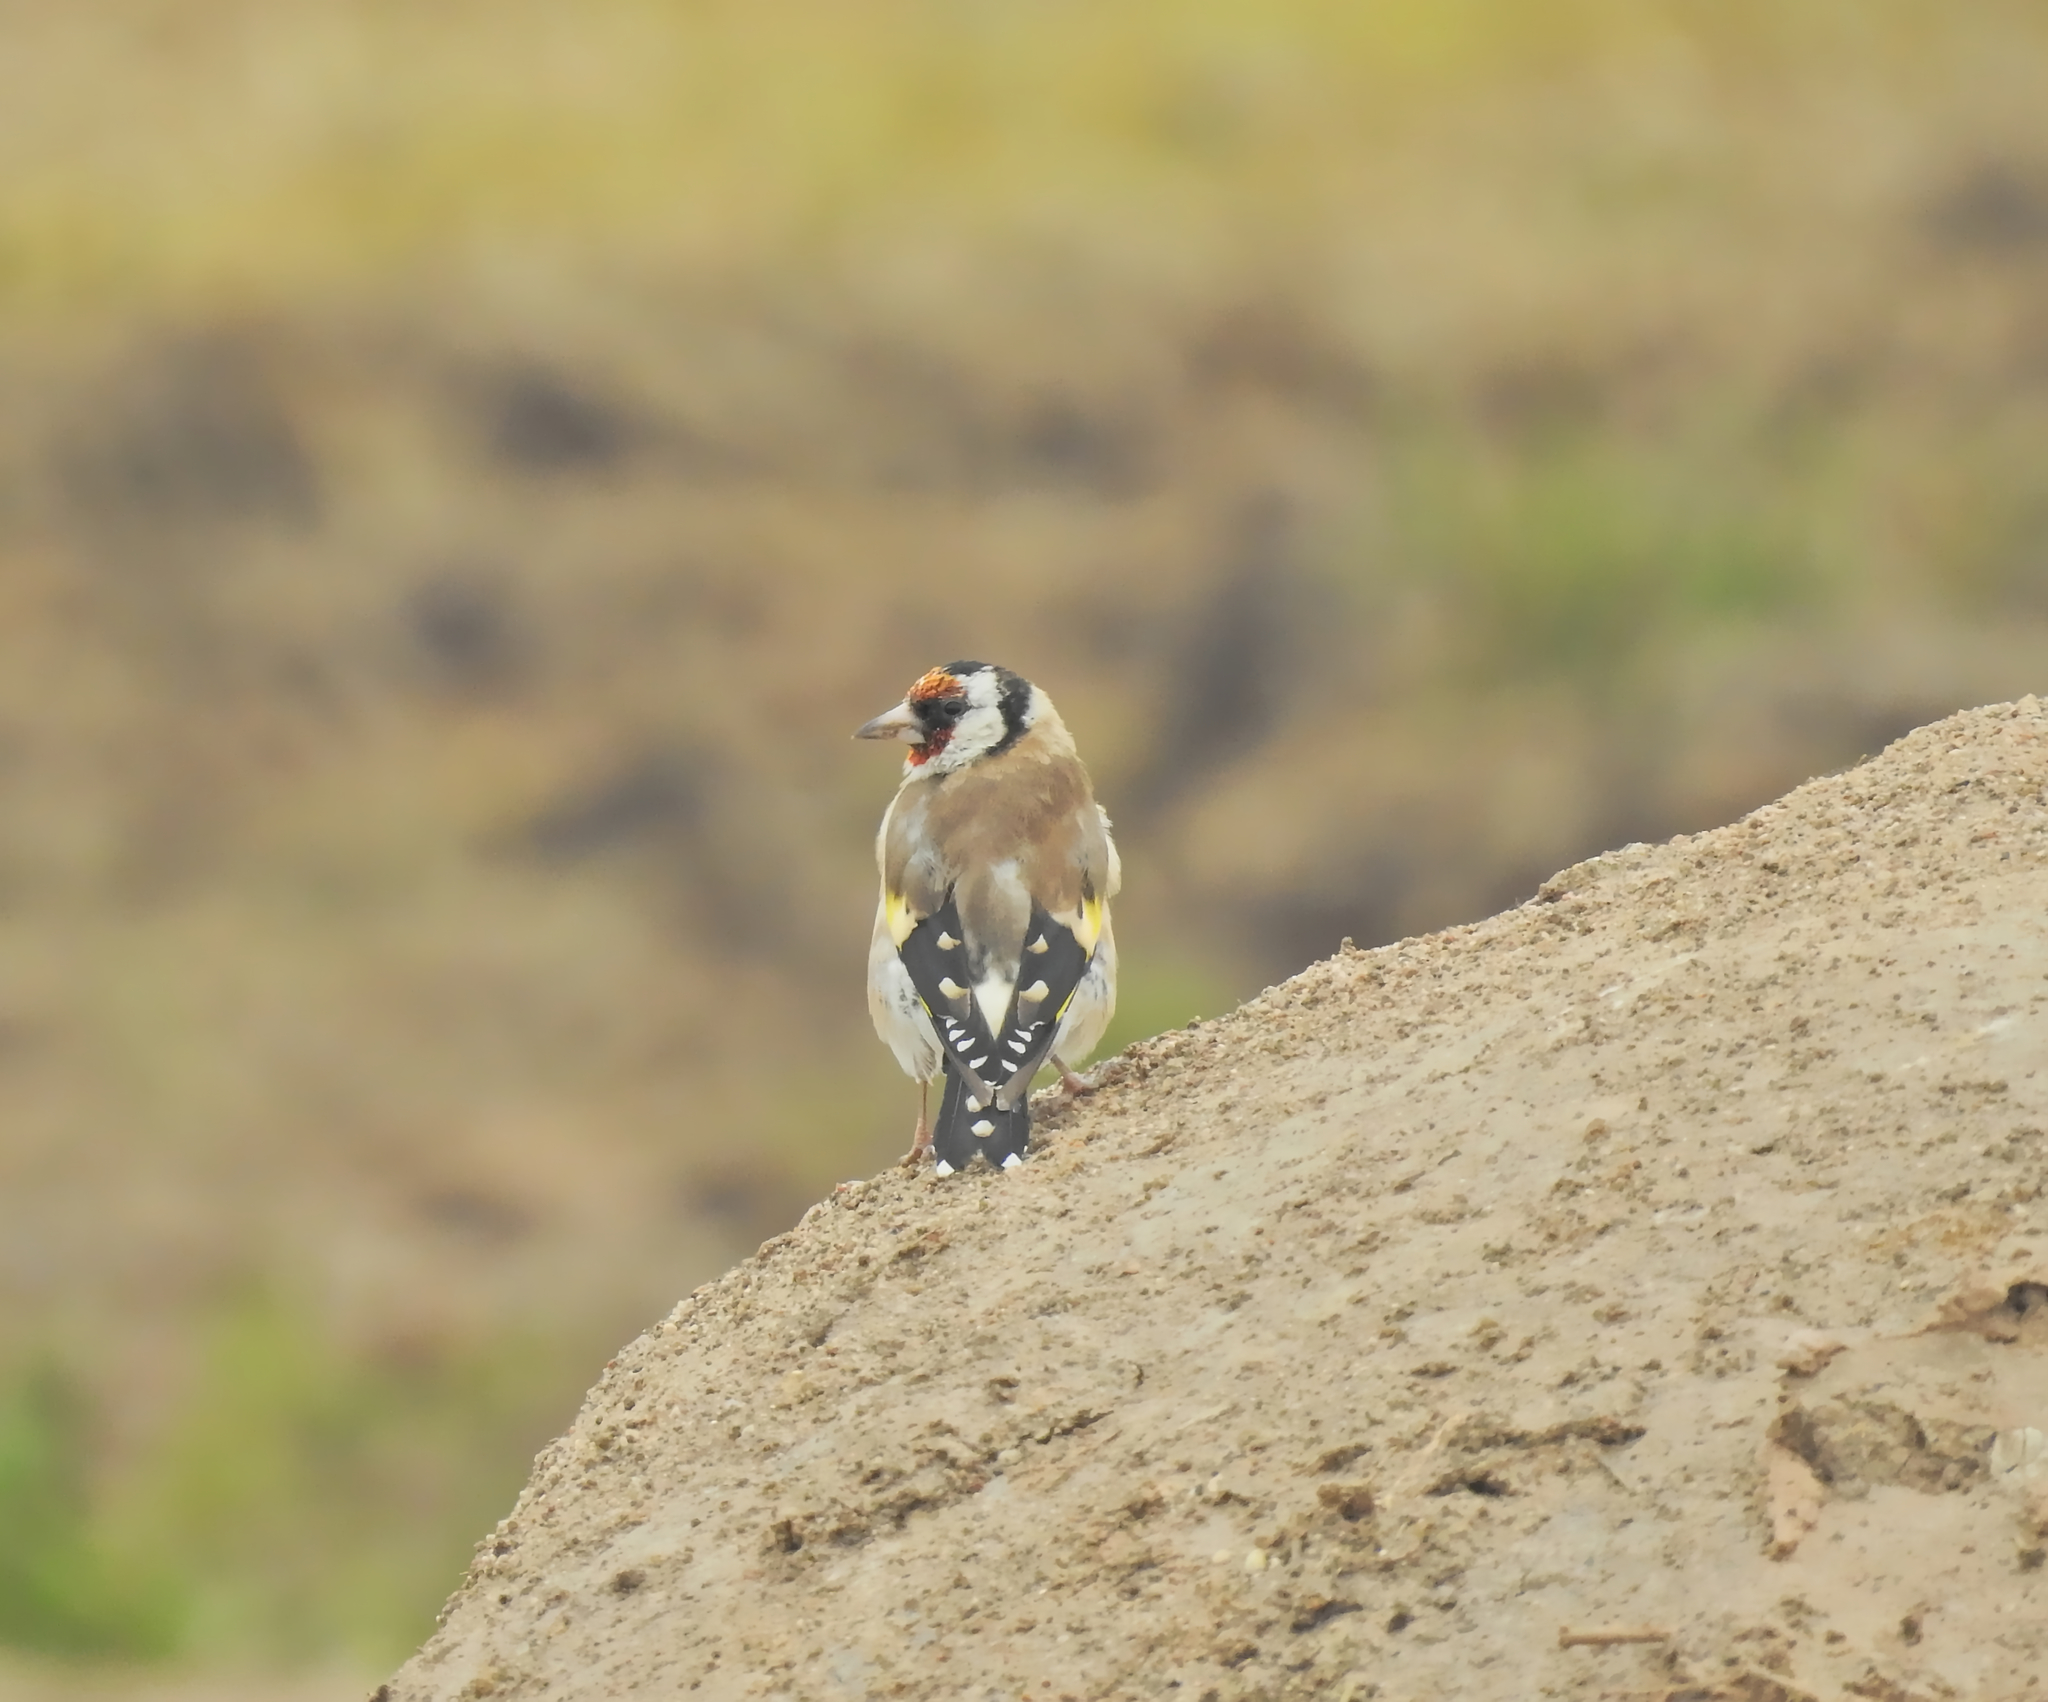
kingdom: Animalia
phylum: Chordata
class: Aves
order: Passeriformes
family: Fringillidae
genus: Carduelis
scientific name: Carduelis carduelis
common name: European goldfinch
